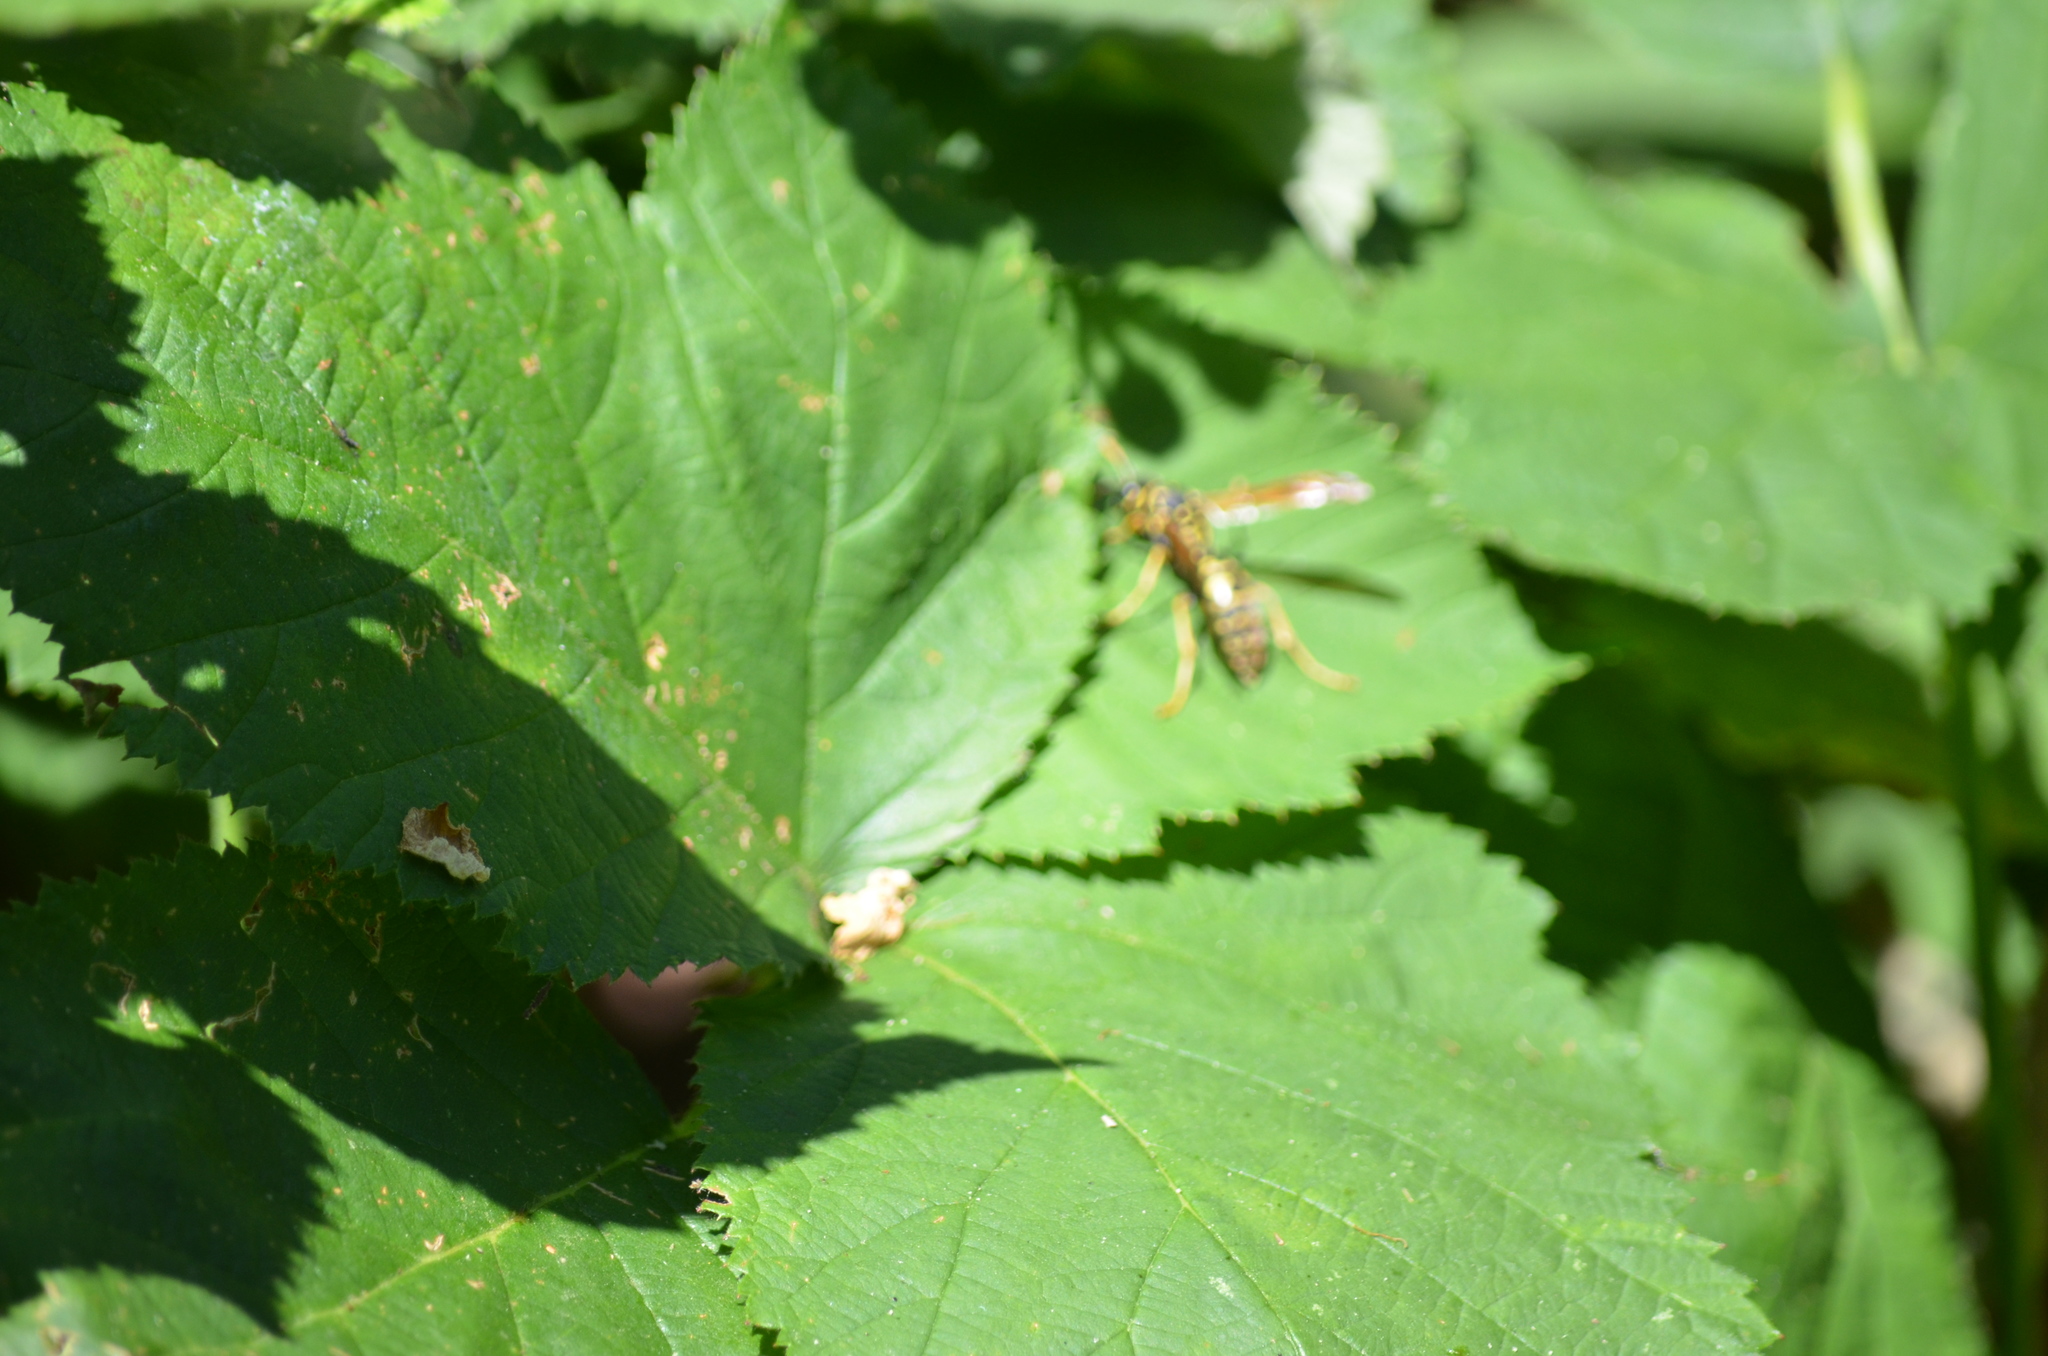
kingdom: Animalia
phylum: Arthropoda
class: Insecta
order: Hymenoptera
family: Eumenidae
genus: Polistes
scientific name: Polistes dominula
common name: Paper wasp
